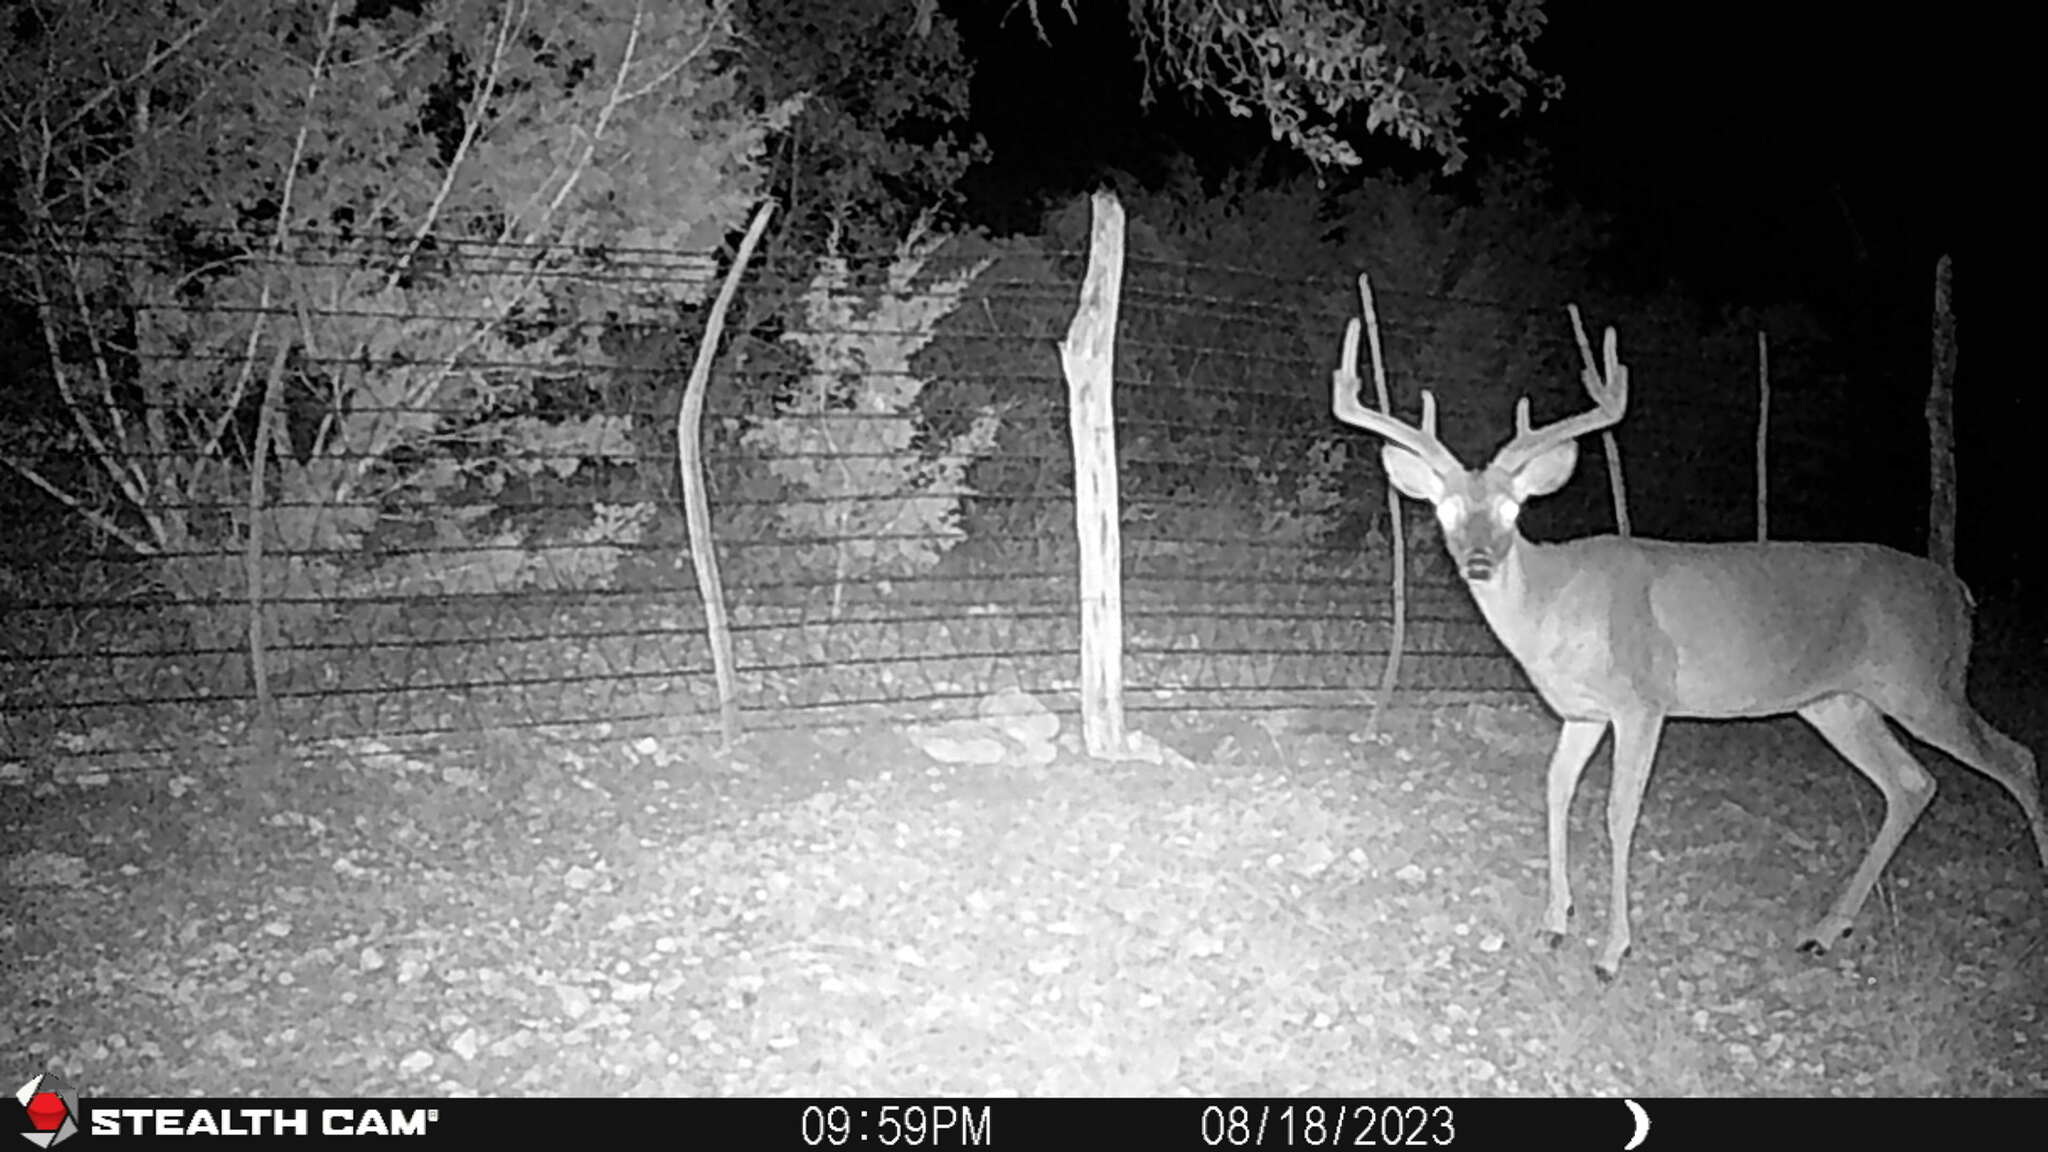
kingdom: Animalia
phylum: Chordata
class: Mammalia
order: Artiodactyla
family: Cervidae
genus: Odocoileus
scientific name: Odocoileus virginianus
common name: White-tailed deer
